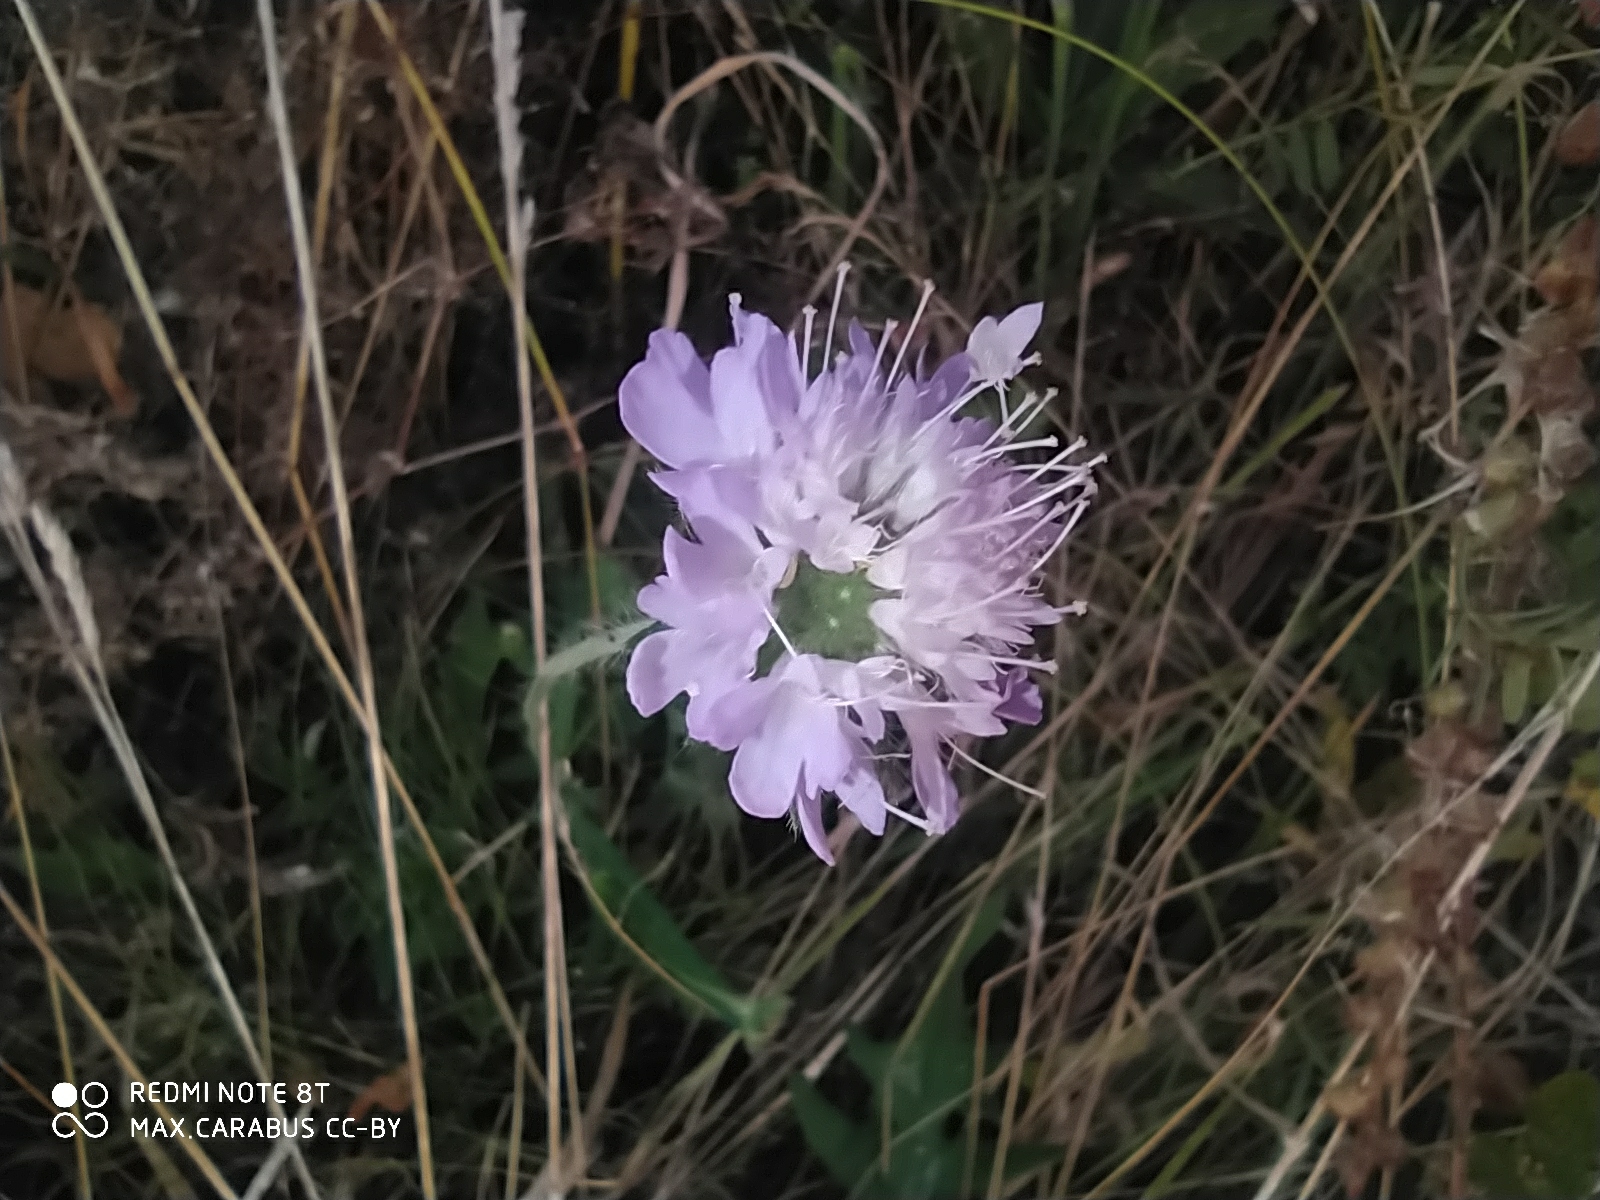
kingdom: Plantae
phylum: Tracheophyta
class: Magnoliopsida
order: Dipsacales
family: Caprifoliaceae
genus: Knautia
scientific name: Knautia arvensis
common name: Field scabiosa
